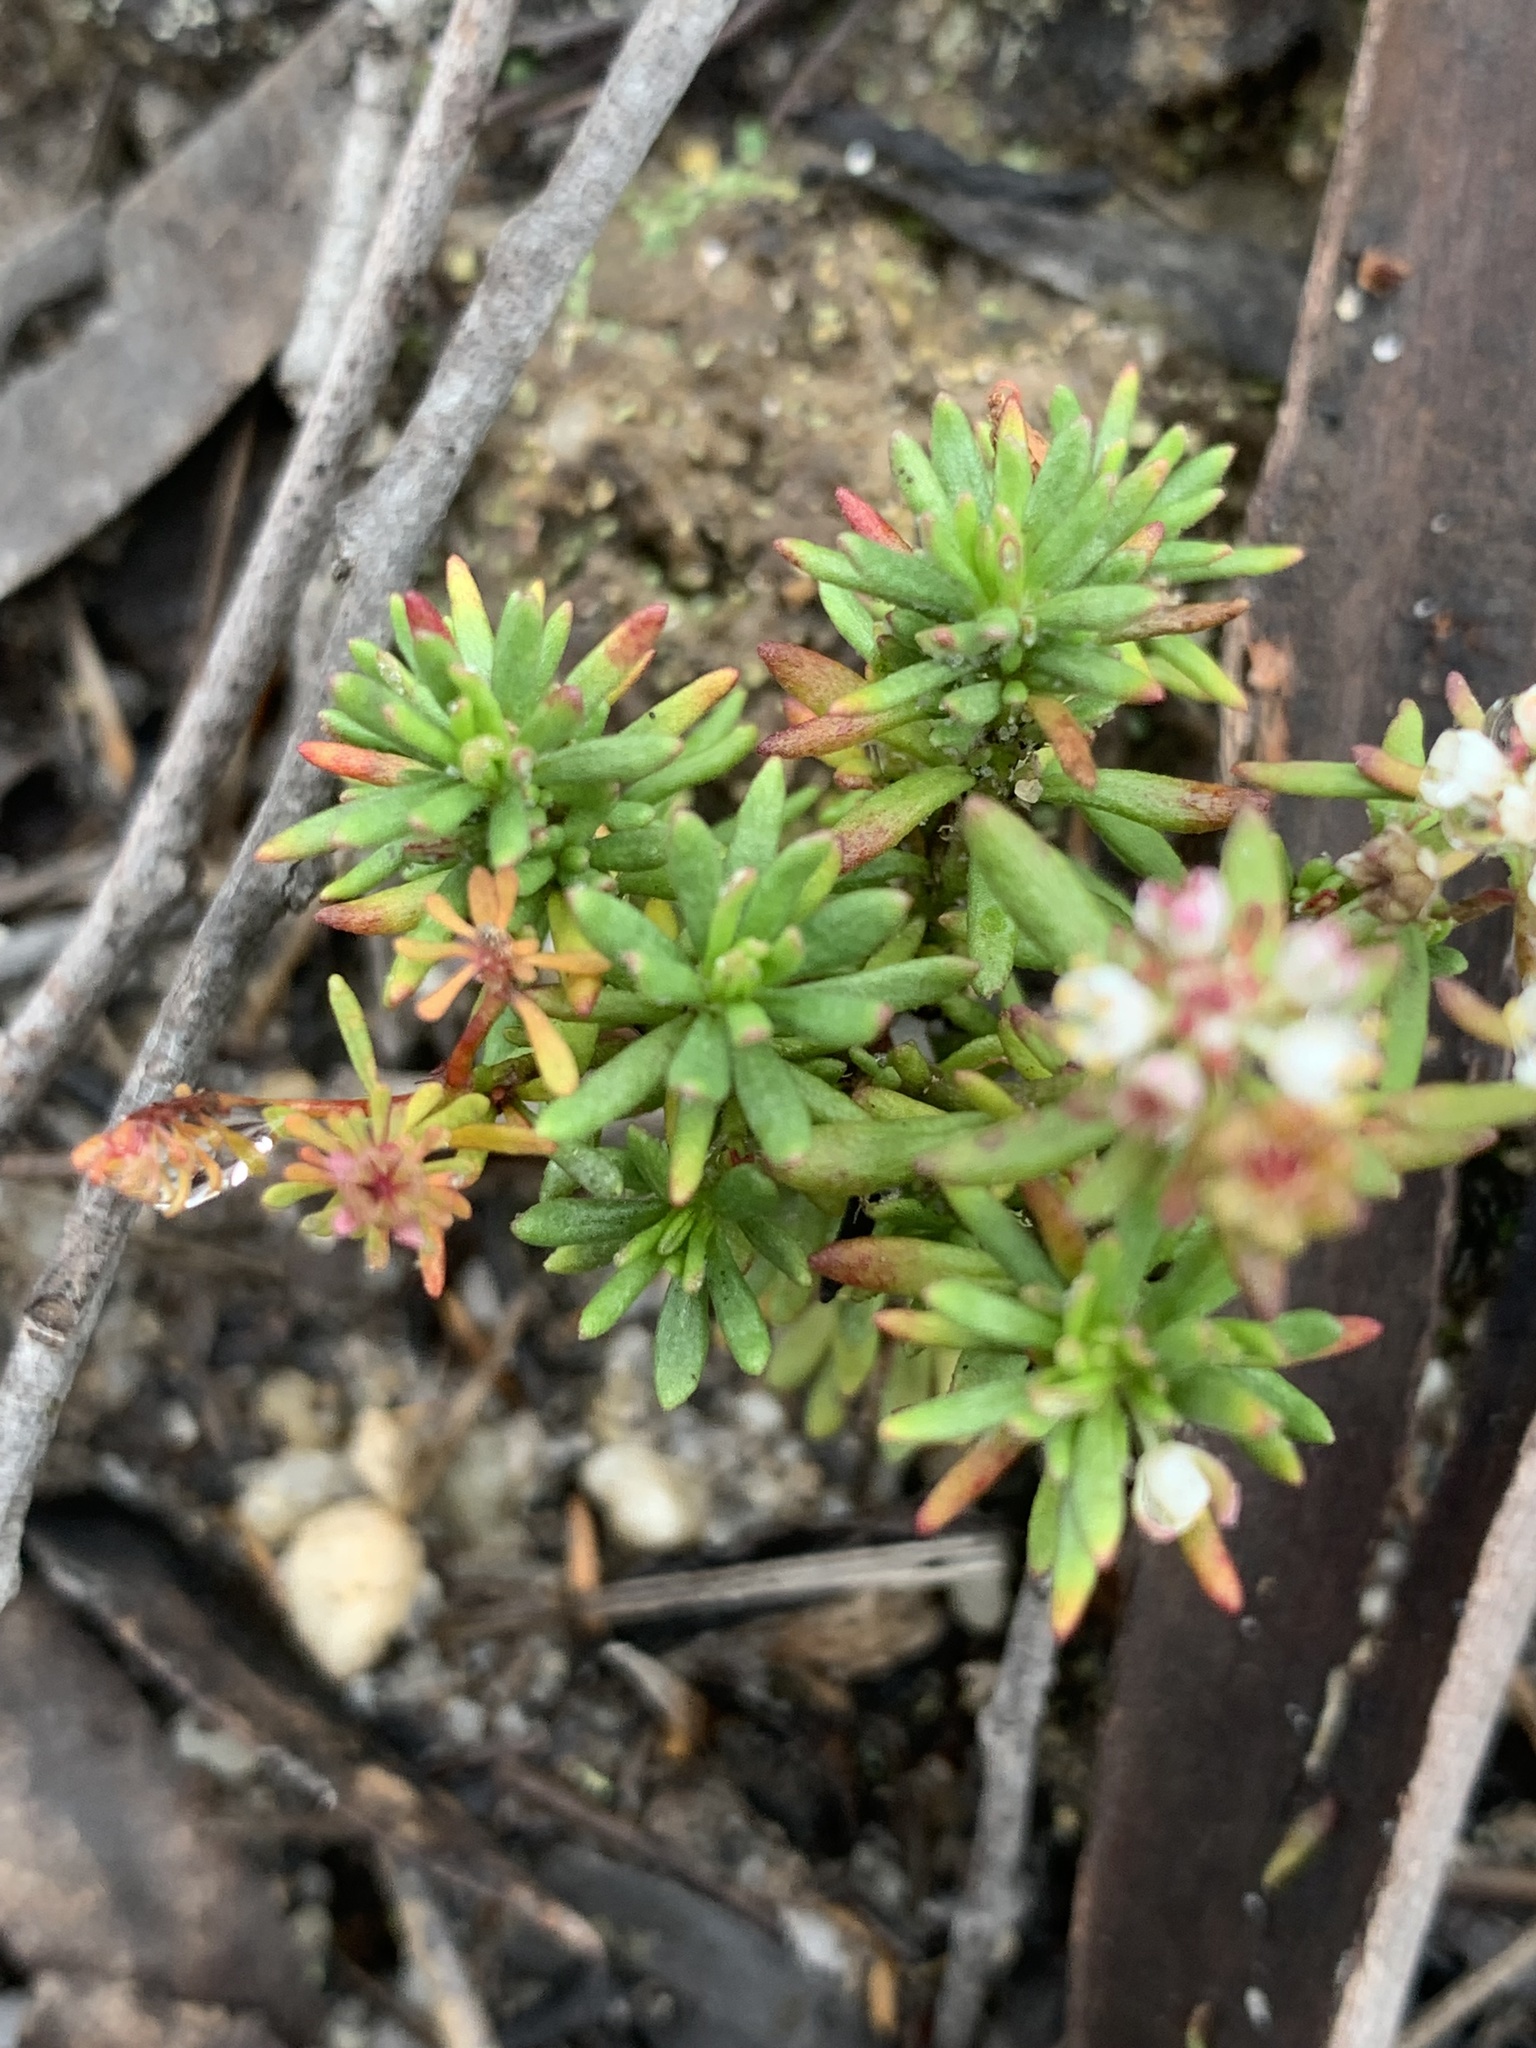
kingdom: Plantae
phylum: Tracheophyta
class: Magnoliopsida
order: Malpighiales
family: Phyllanthaceae
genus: Poranthera
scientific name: Poranthera ericifolia
